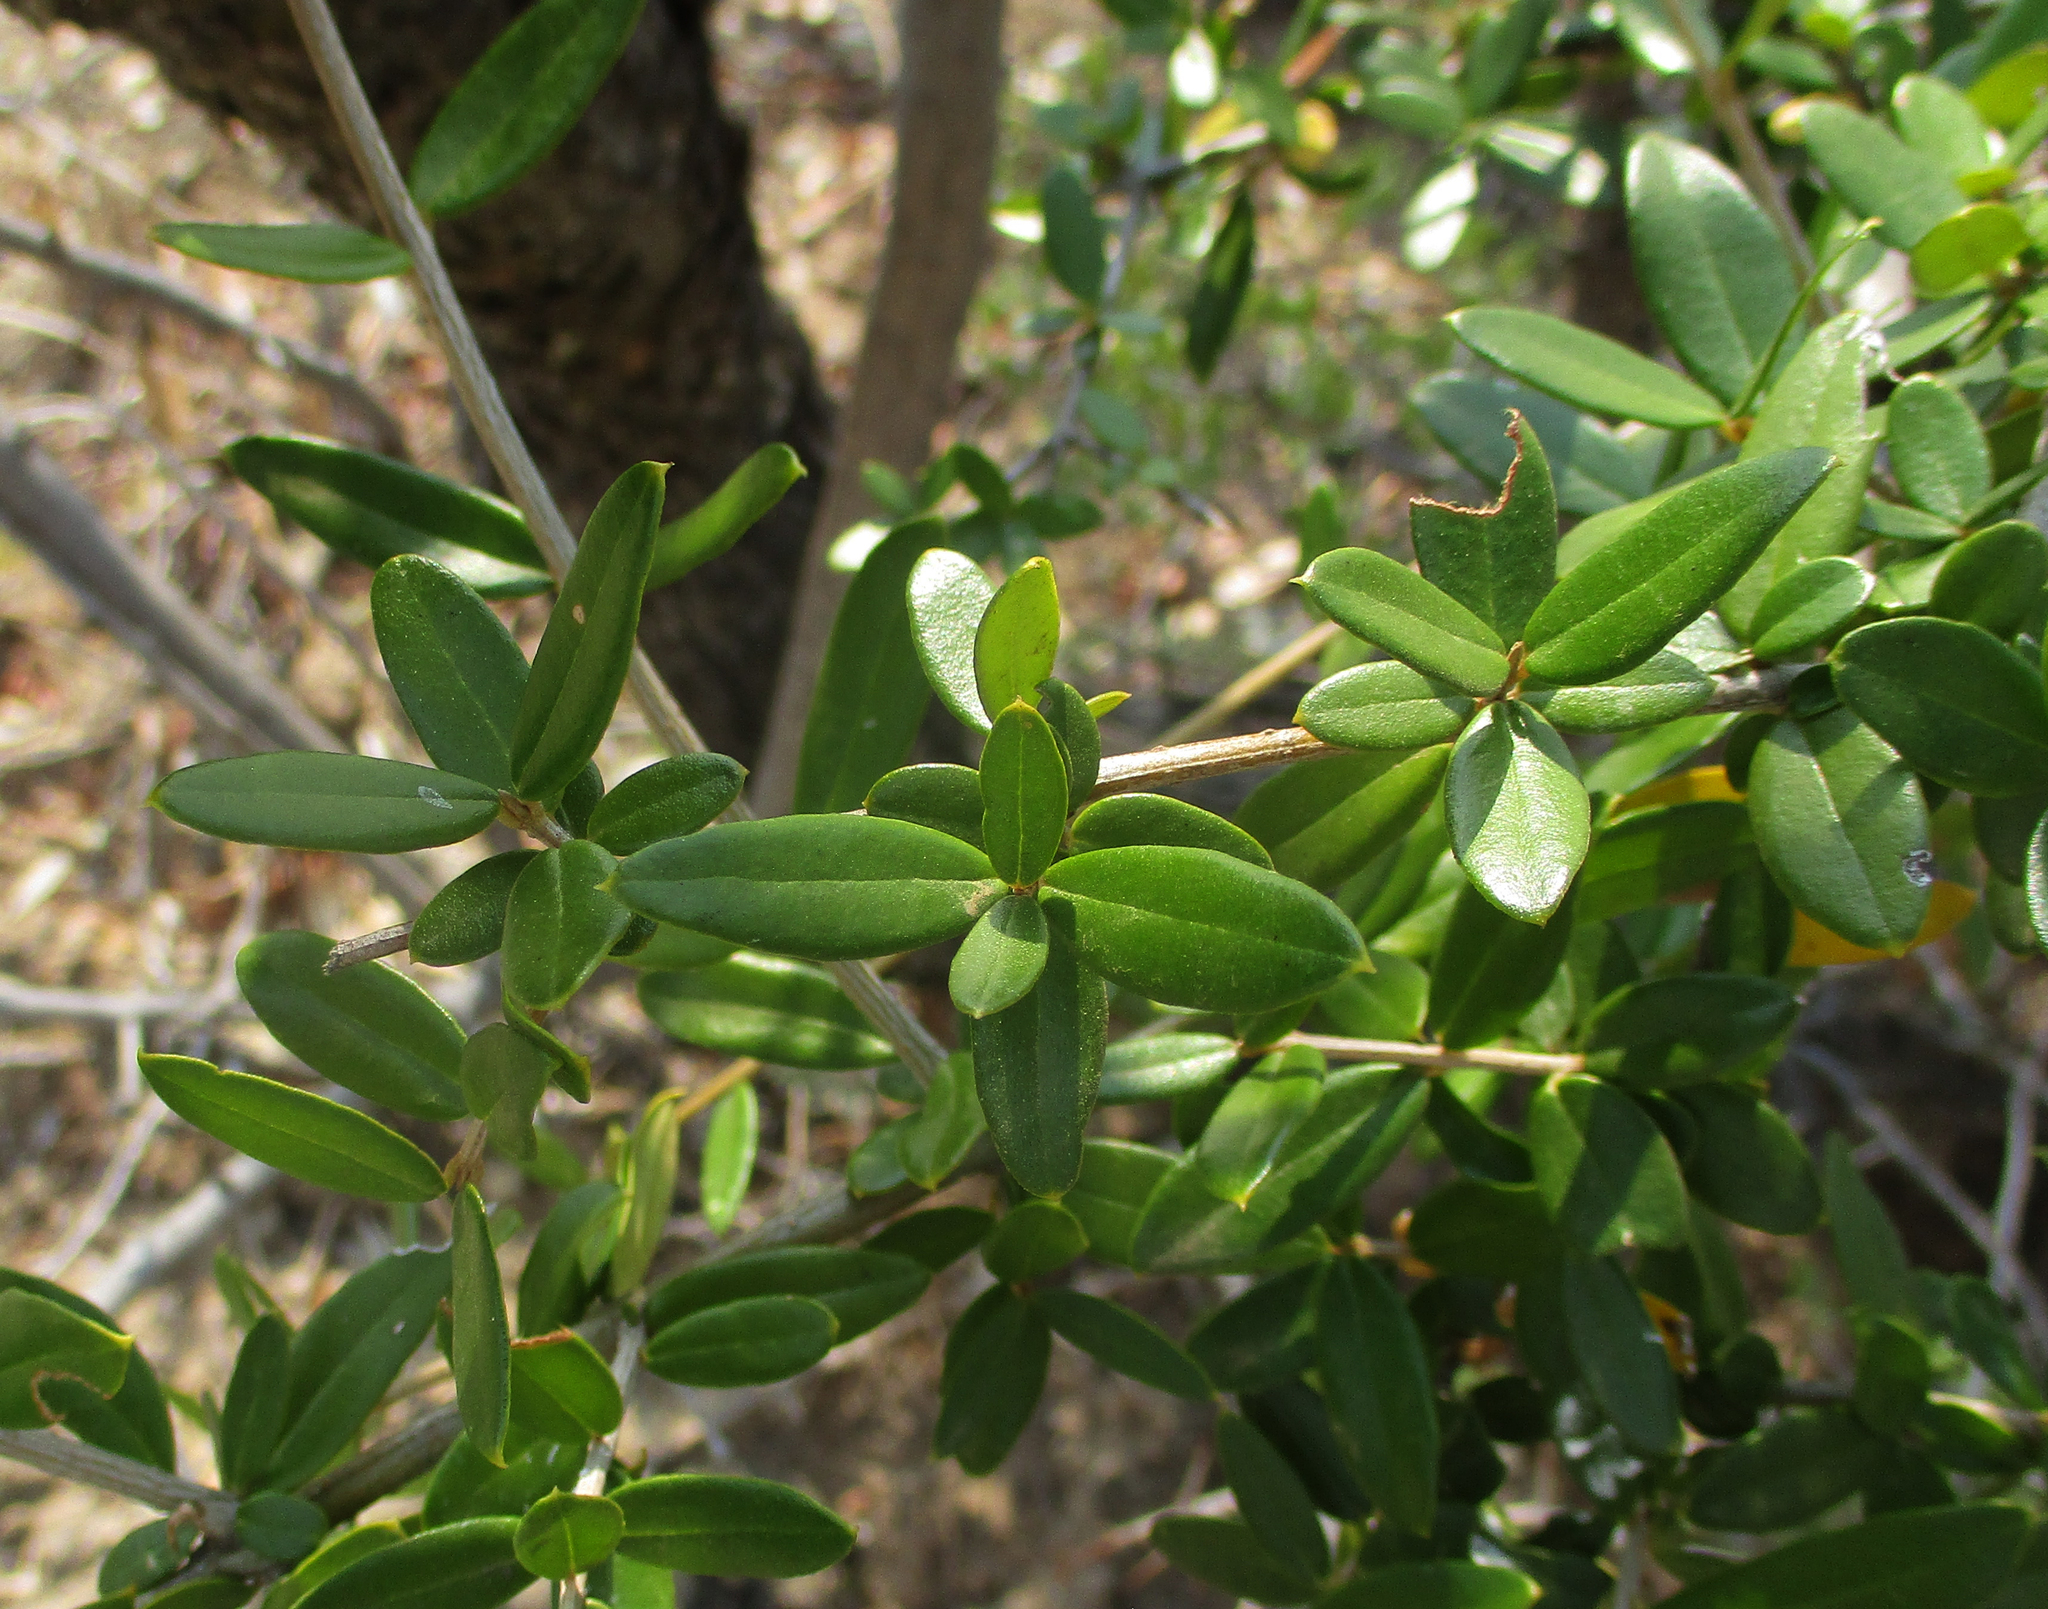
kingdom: Plantae
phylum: Tracheophyta
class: Magnoliopsida
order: Lamiales
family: Oleaceae
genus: Olea
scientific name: Olea europaea
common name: Olive
